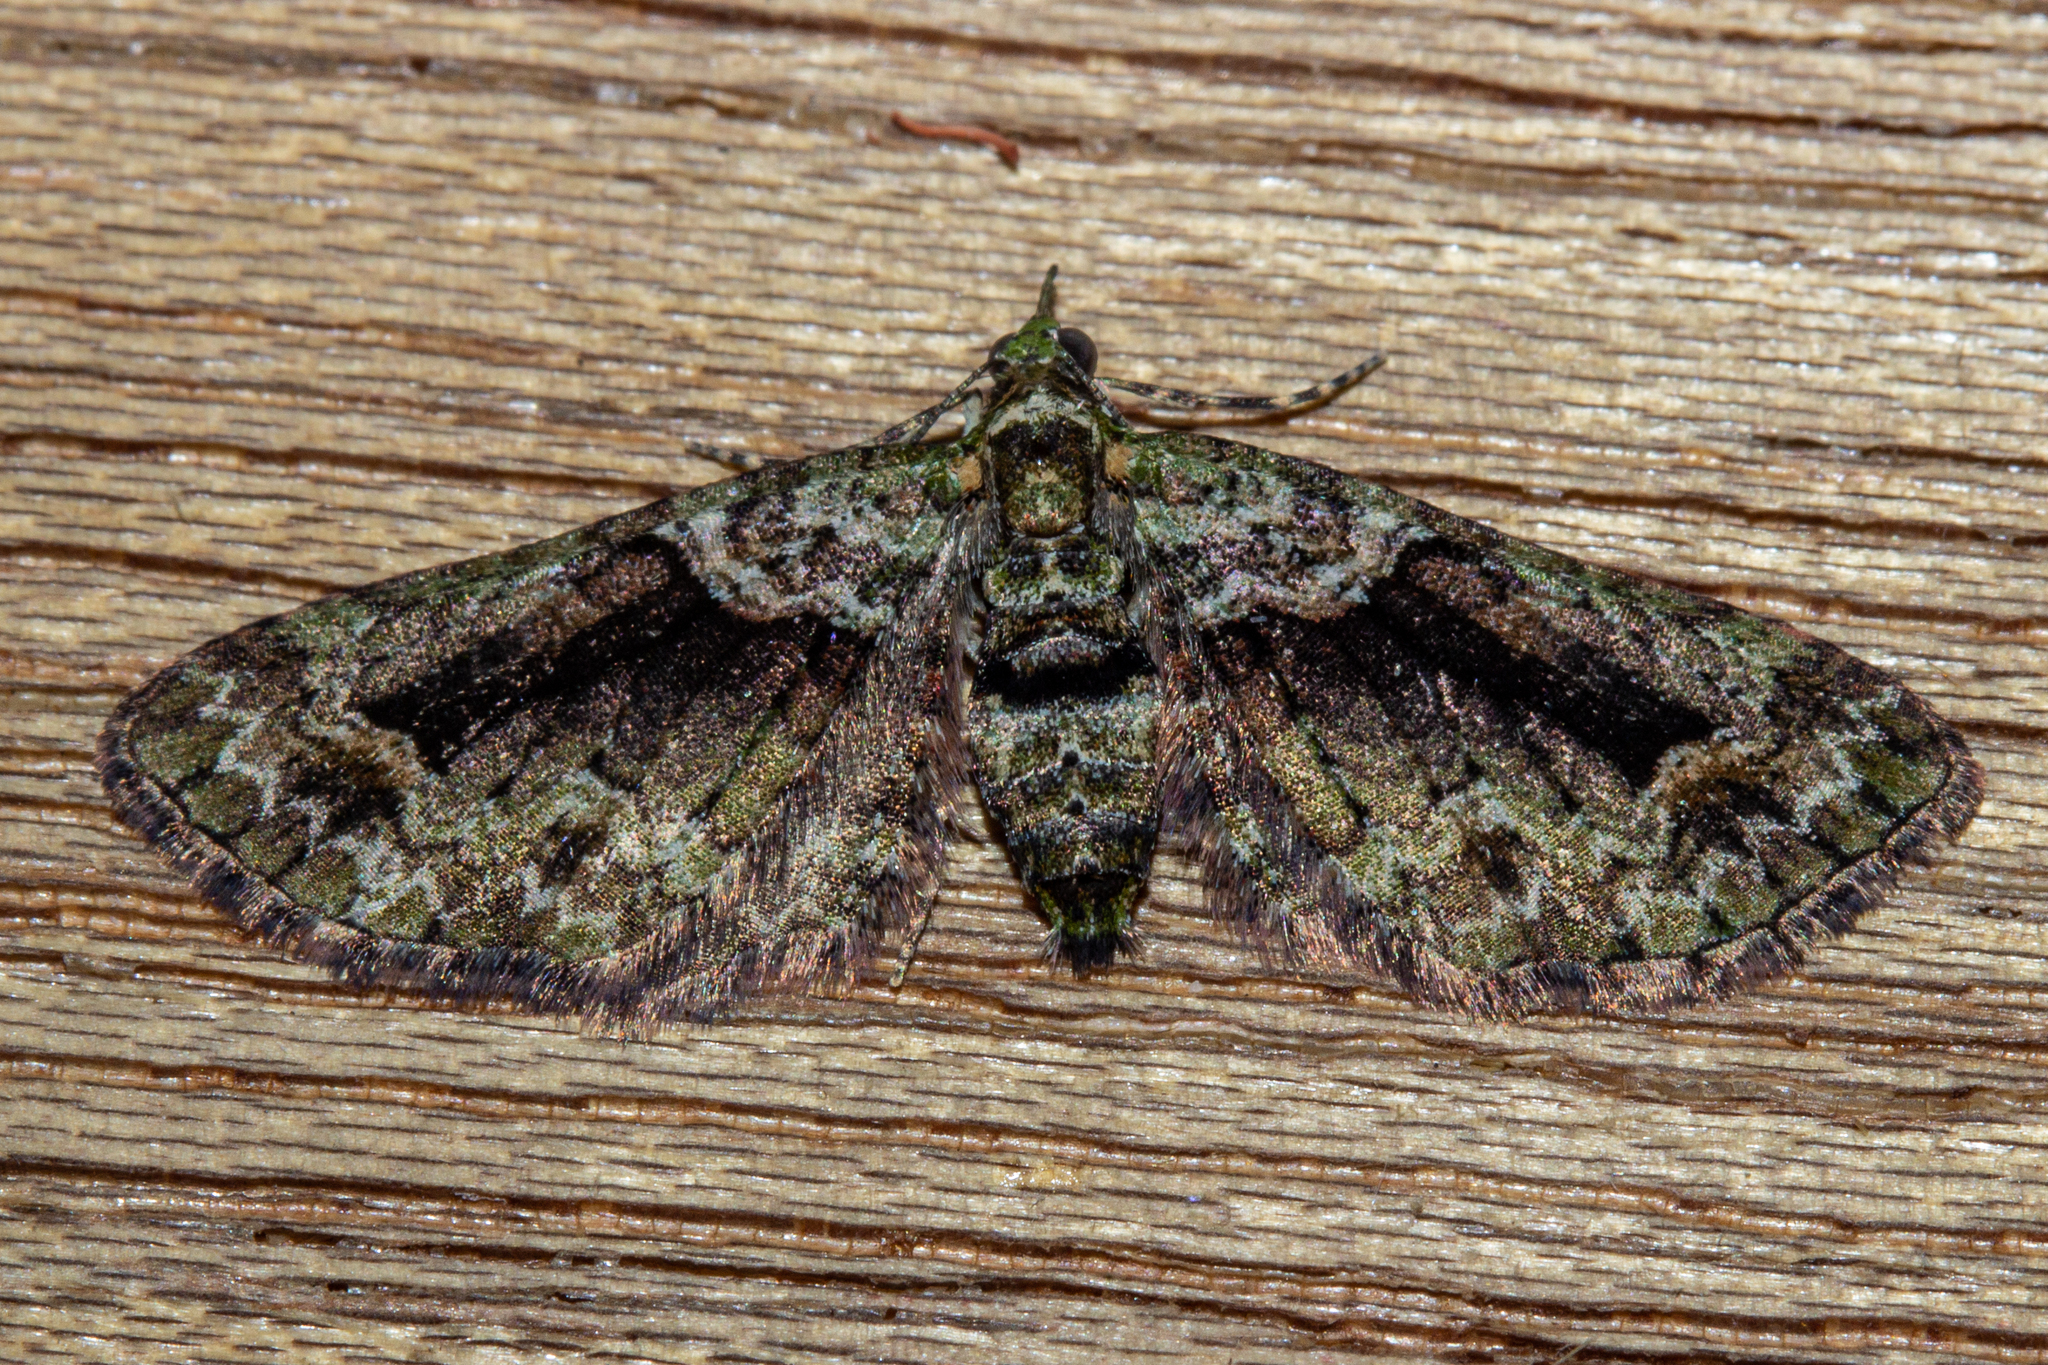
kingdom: Animalia
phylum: Arthropoda
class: Insecta
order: Lepidoptera
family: Geometridae
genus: Pasiphila
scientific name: Pasiphila suffusa
